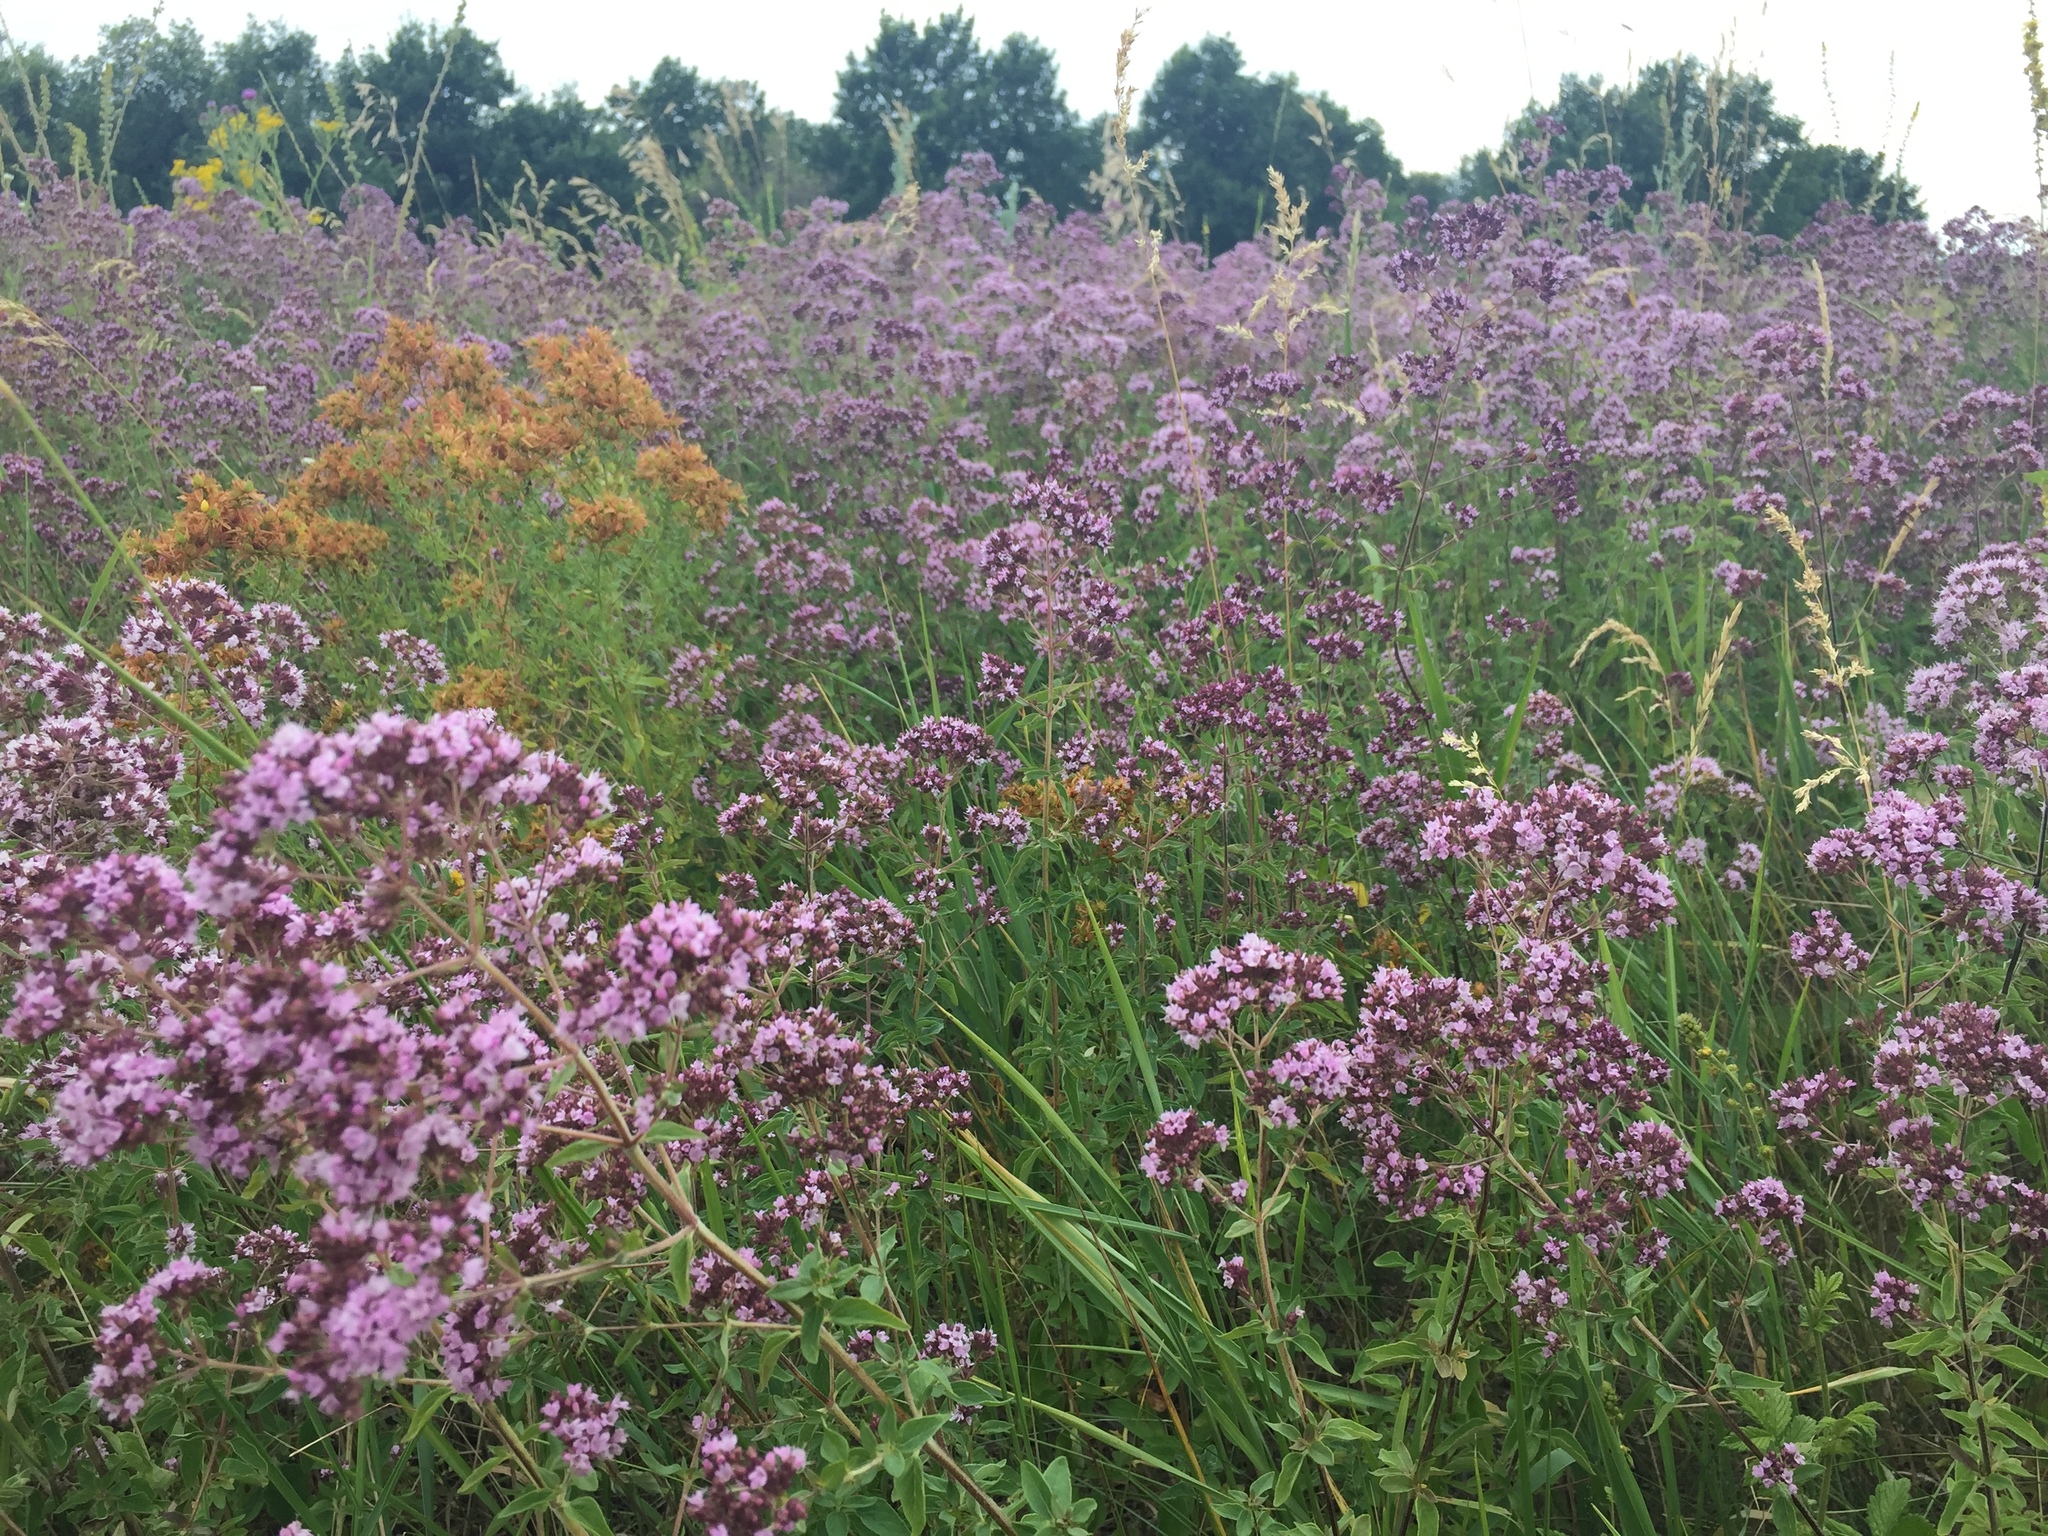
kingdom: Plantae
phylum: Tracheophyta
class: Magnoliopsida
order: Lamiales
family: Lamiaceae
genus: Origanum
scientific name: Origanum vulgare
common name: Wild marjoram
